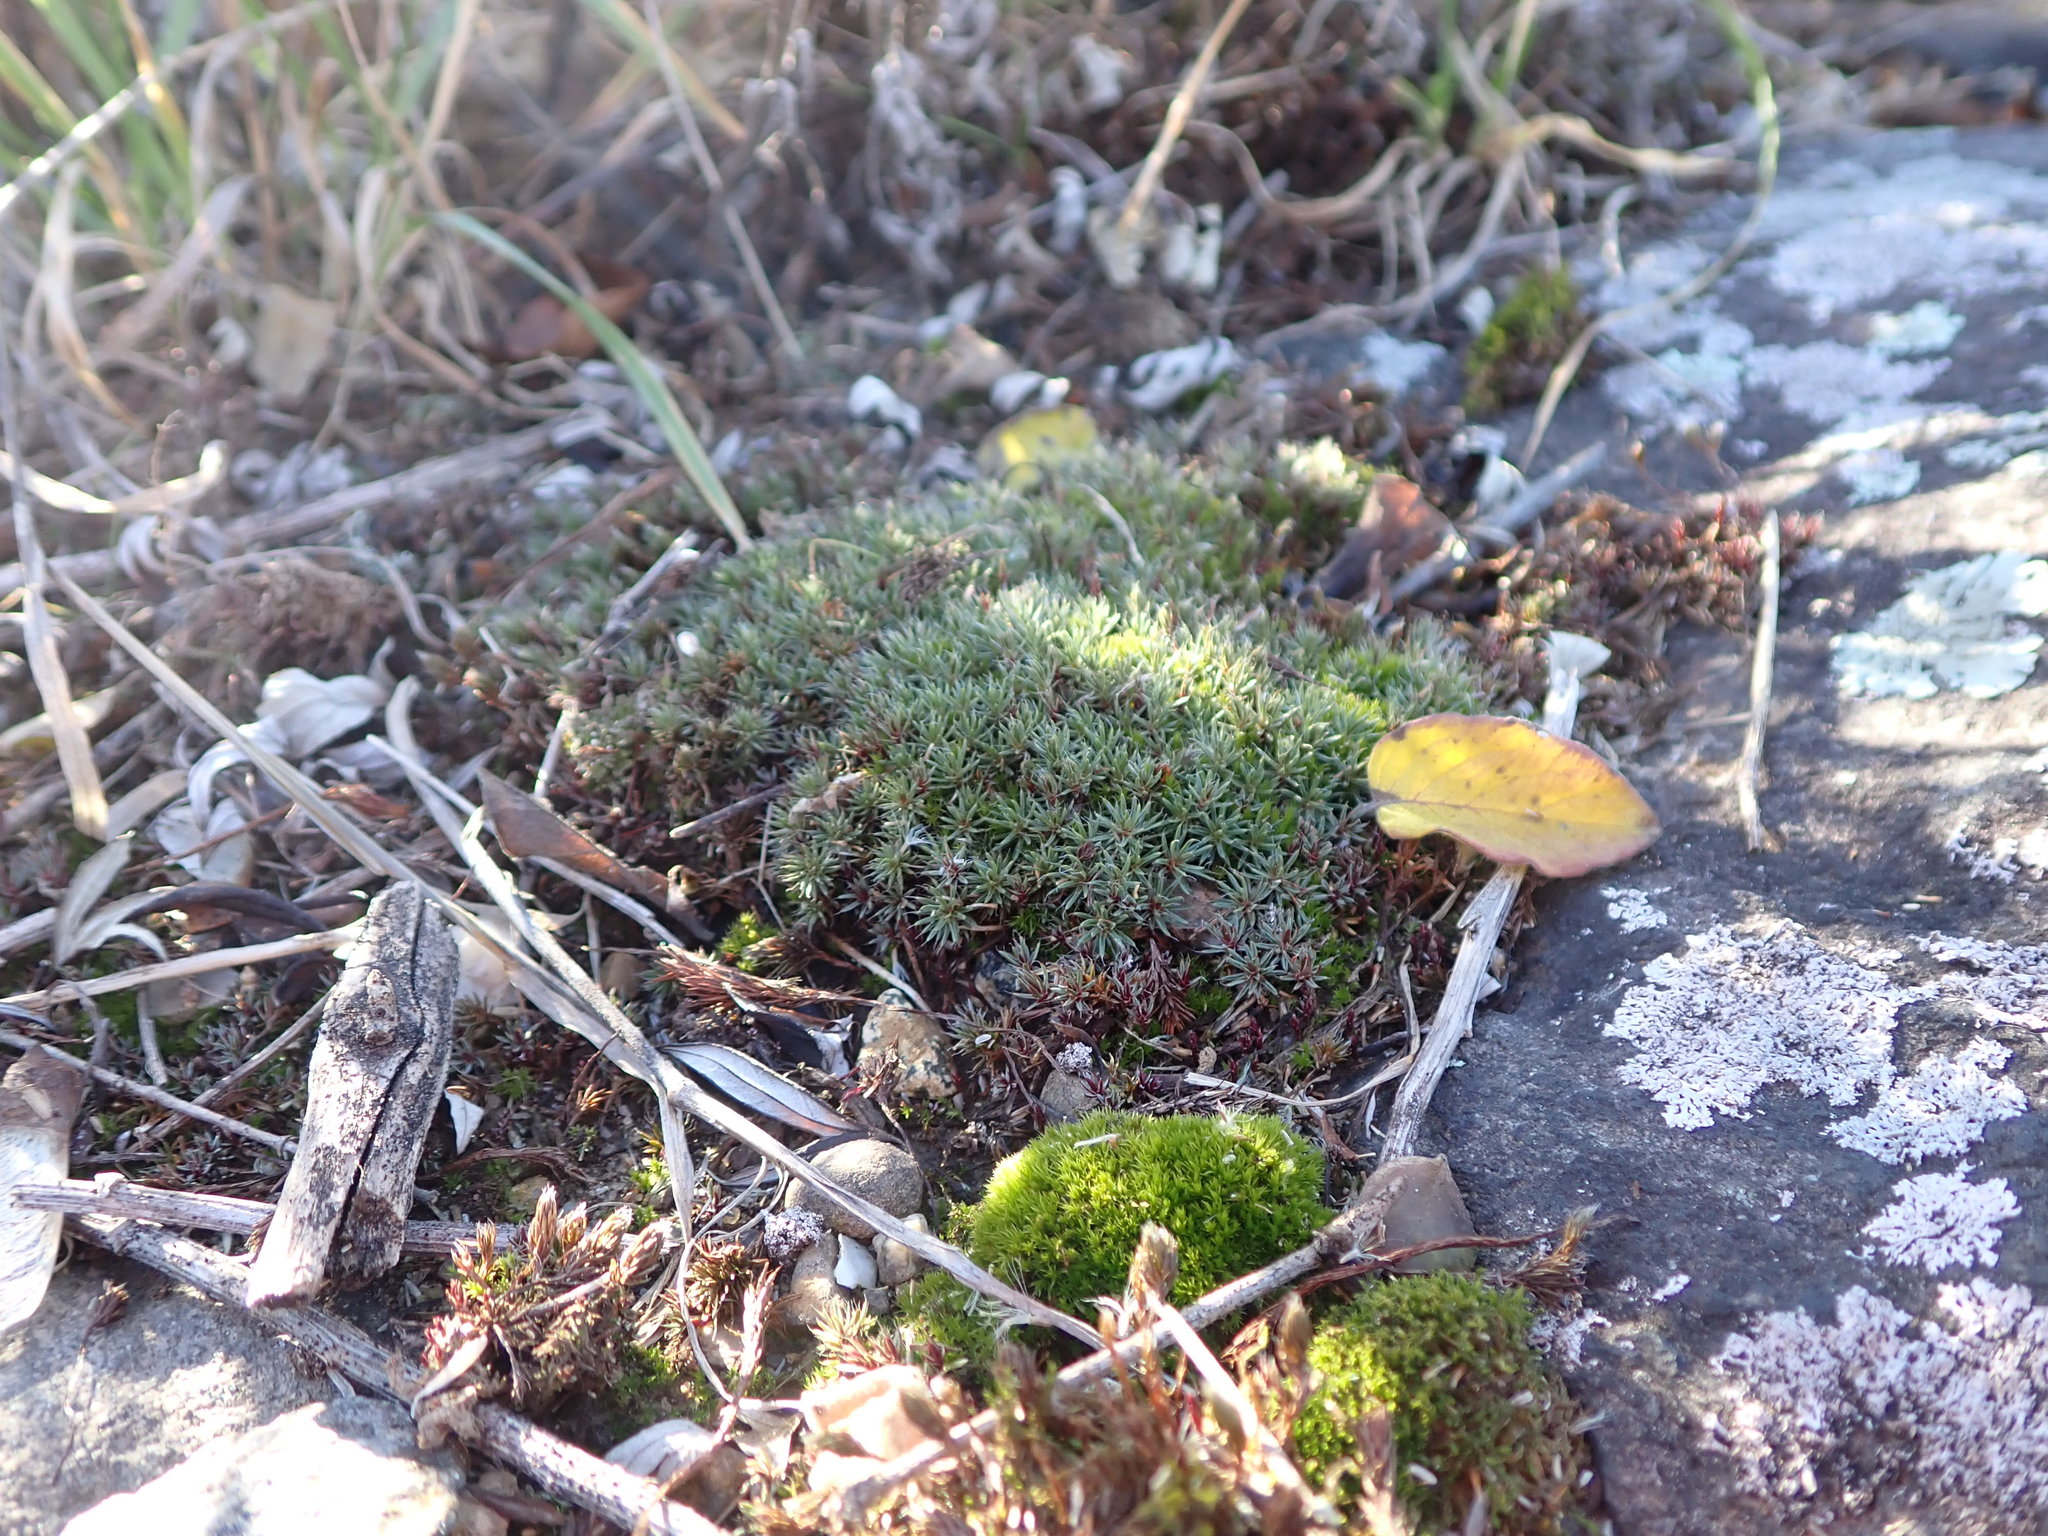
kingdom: Plantae
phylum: Bryophyta
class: Polytrichopsida
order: Polytrichales
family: Polytrichaceae
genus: Polytrichum
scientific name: Polytrichum piliferum
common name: Bristly haircap
